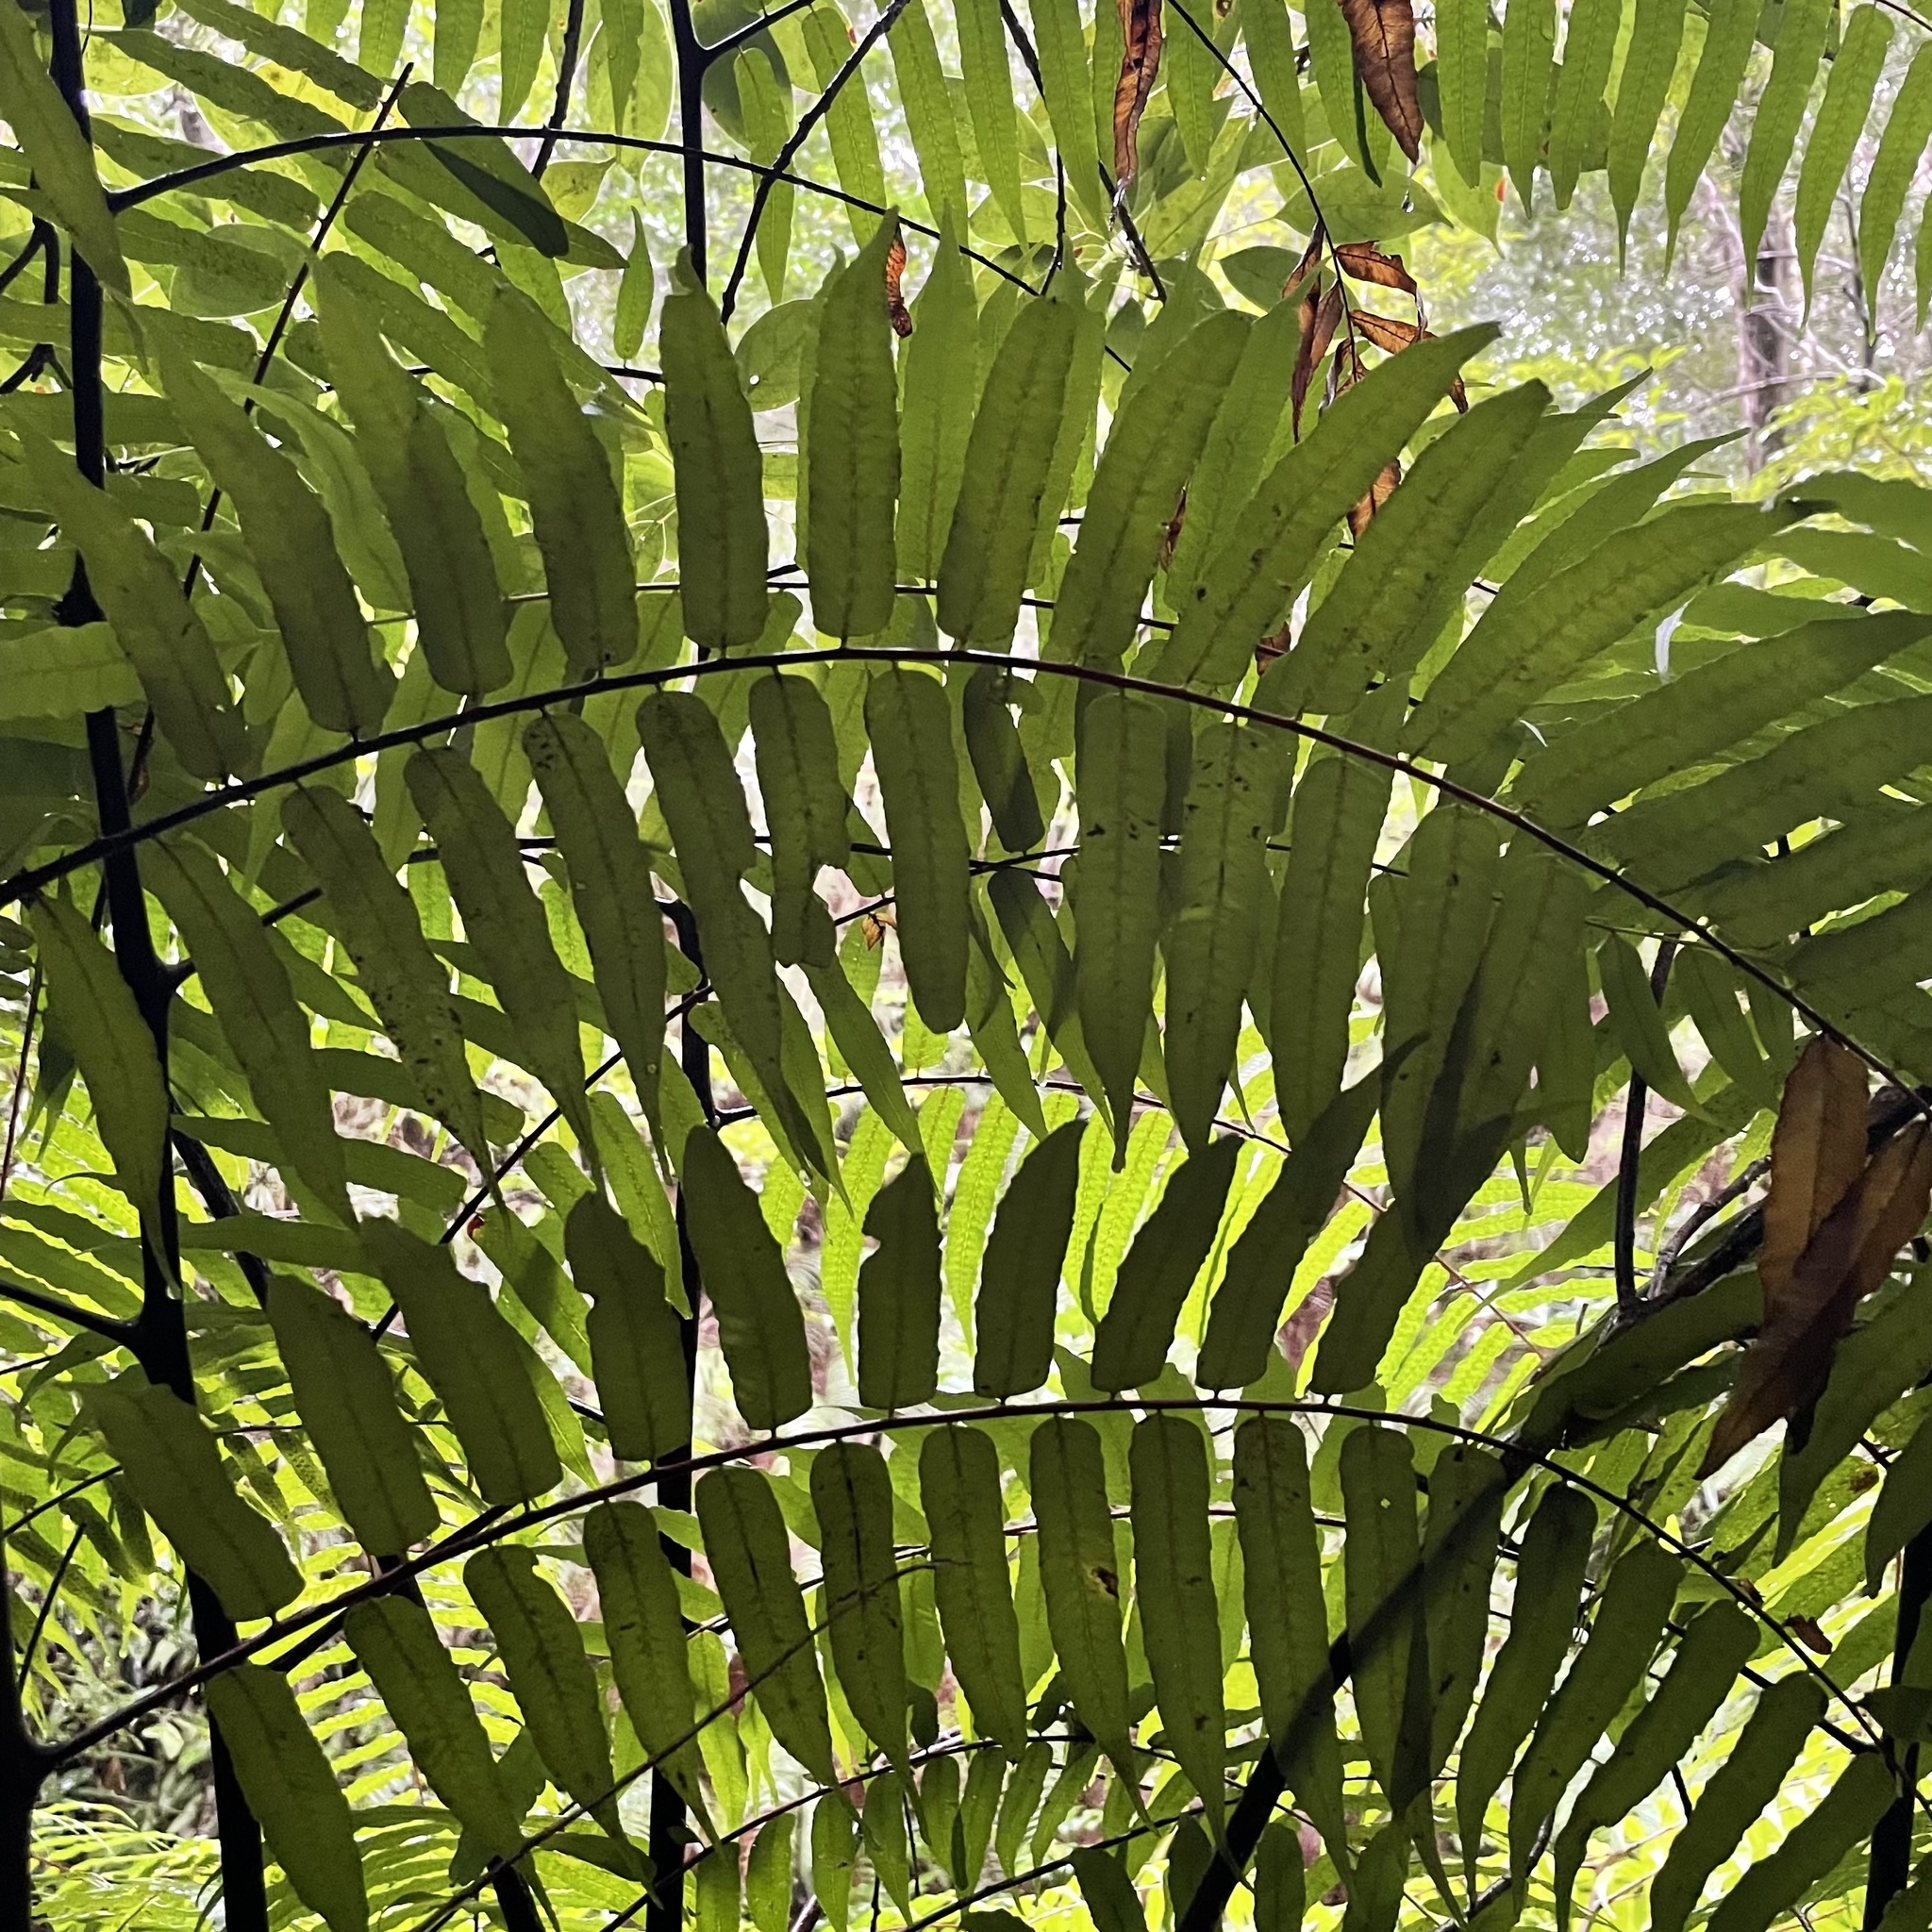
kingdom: Plantae
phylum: Tracheophyta
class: Polypodiopsida
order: Cyatheales
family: Cyatheaceae
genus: Gymnosphaera
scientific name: Gymnosphaera podophylla
